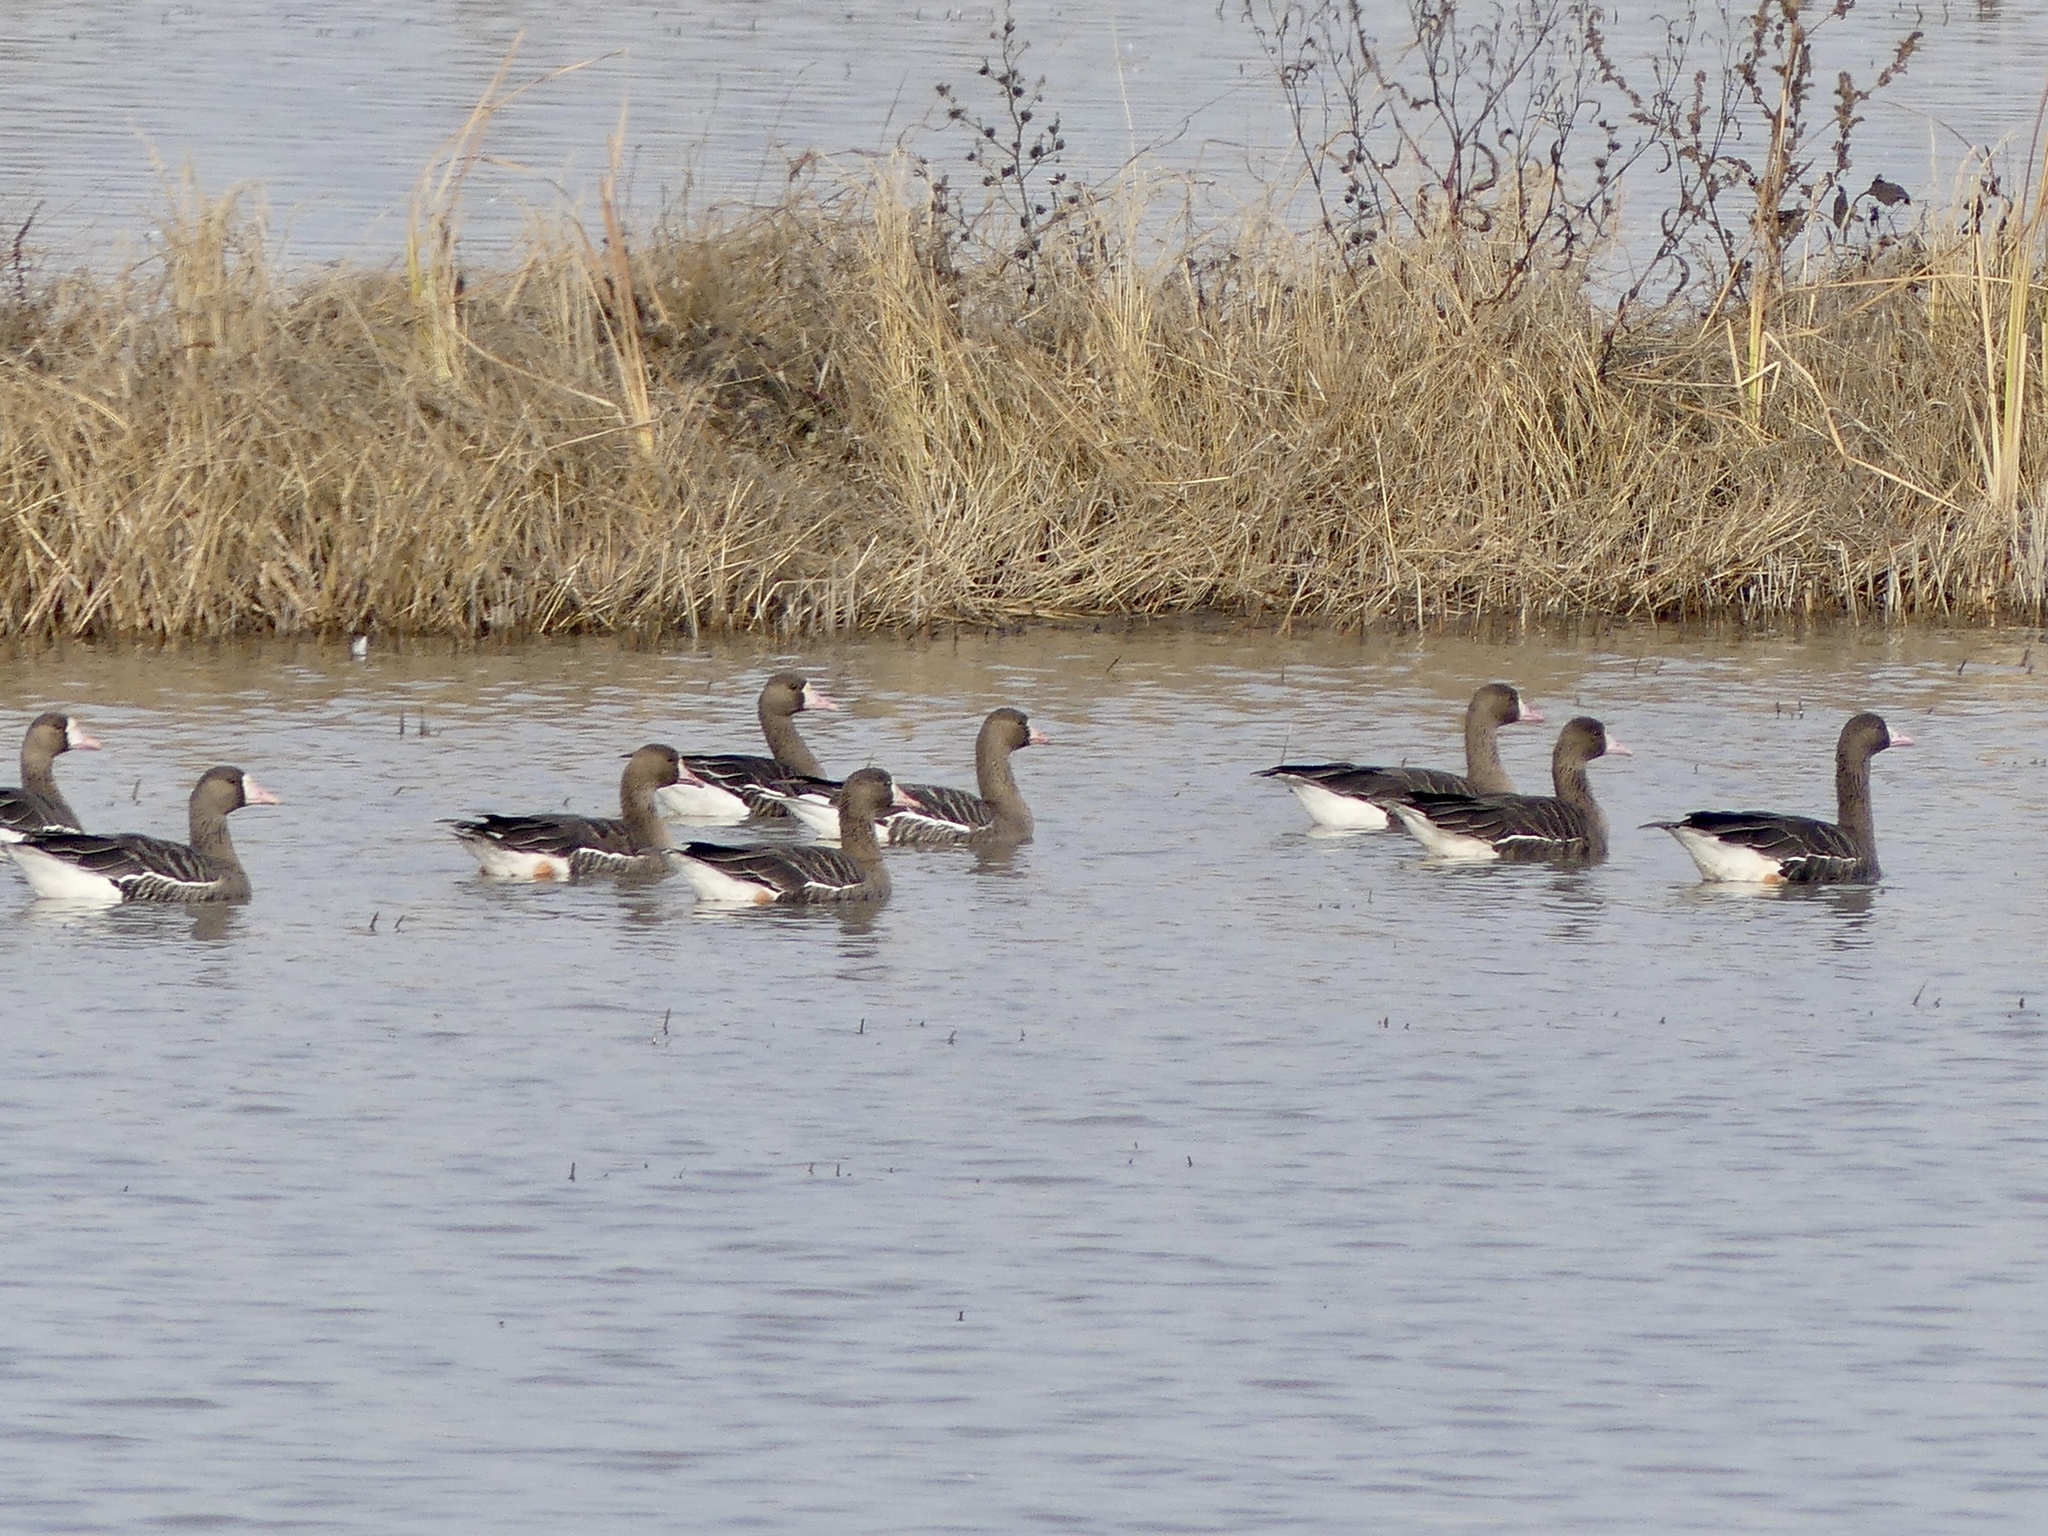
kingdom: Animalia
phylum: Chordata
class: Aves
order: Anseriformes
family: Anatidae
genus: Anser
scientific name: Anser albifrons
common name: Greater white-fronted goose
